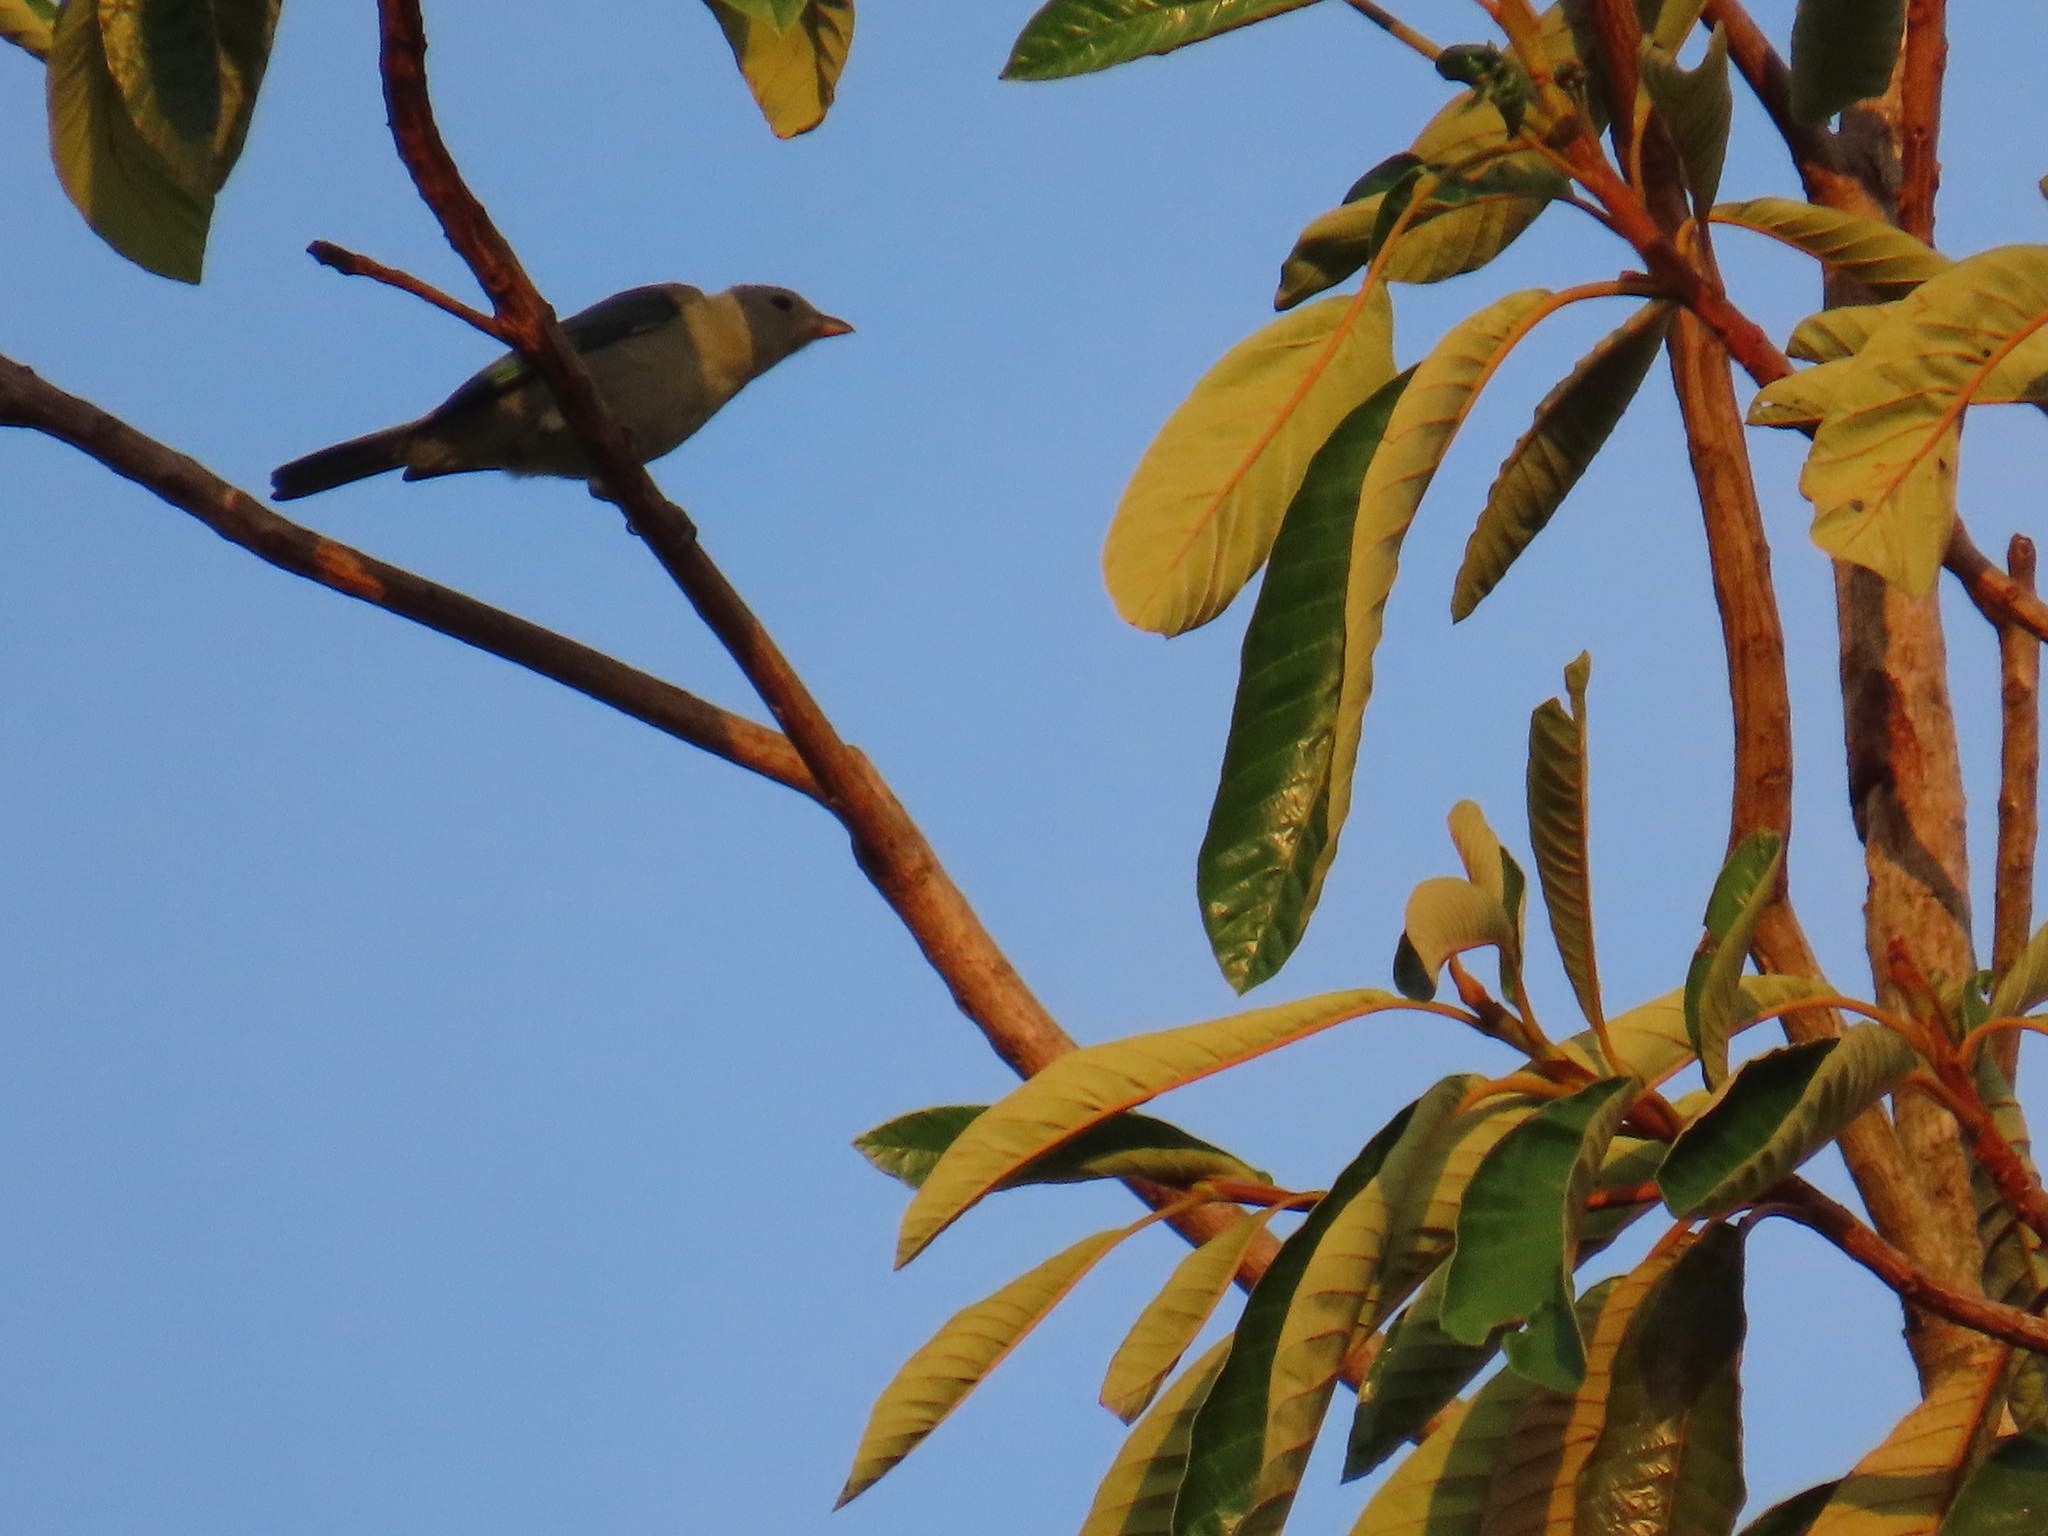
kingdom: Animalia
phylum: Chordata
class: Aves
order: Passeriformes
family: Thraupidae
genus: Thraupis
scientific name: Thraupis palmarum
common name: Palm tanager
